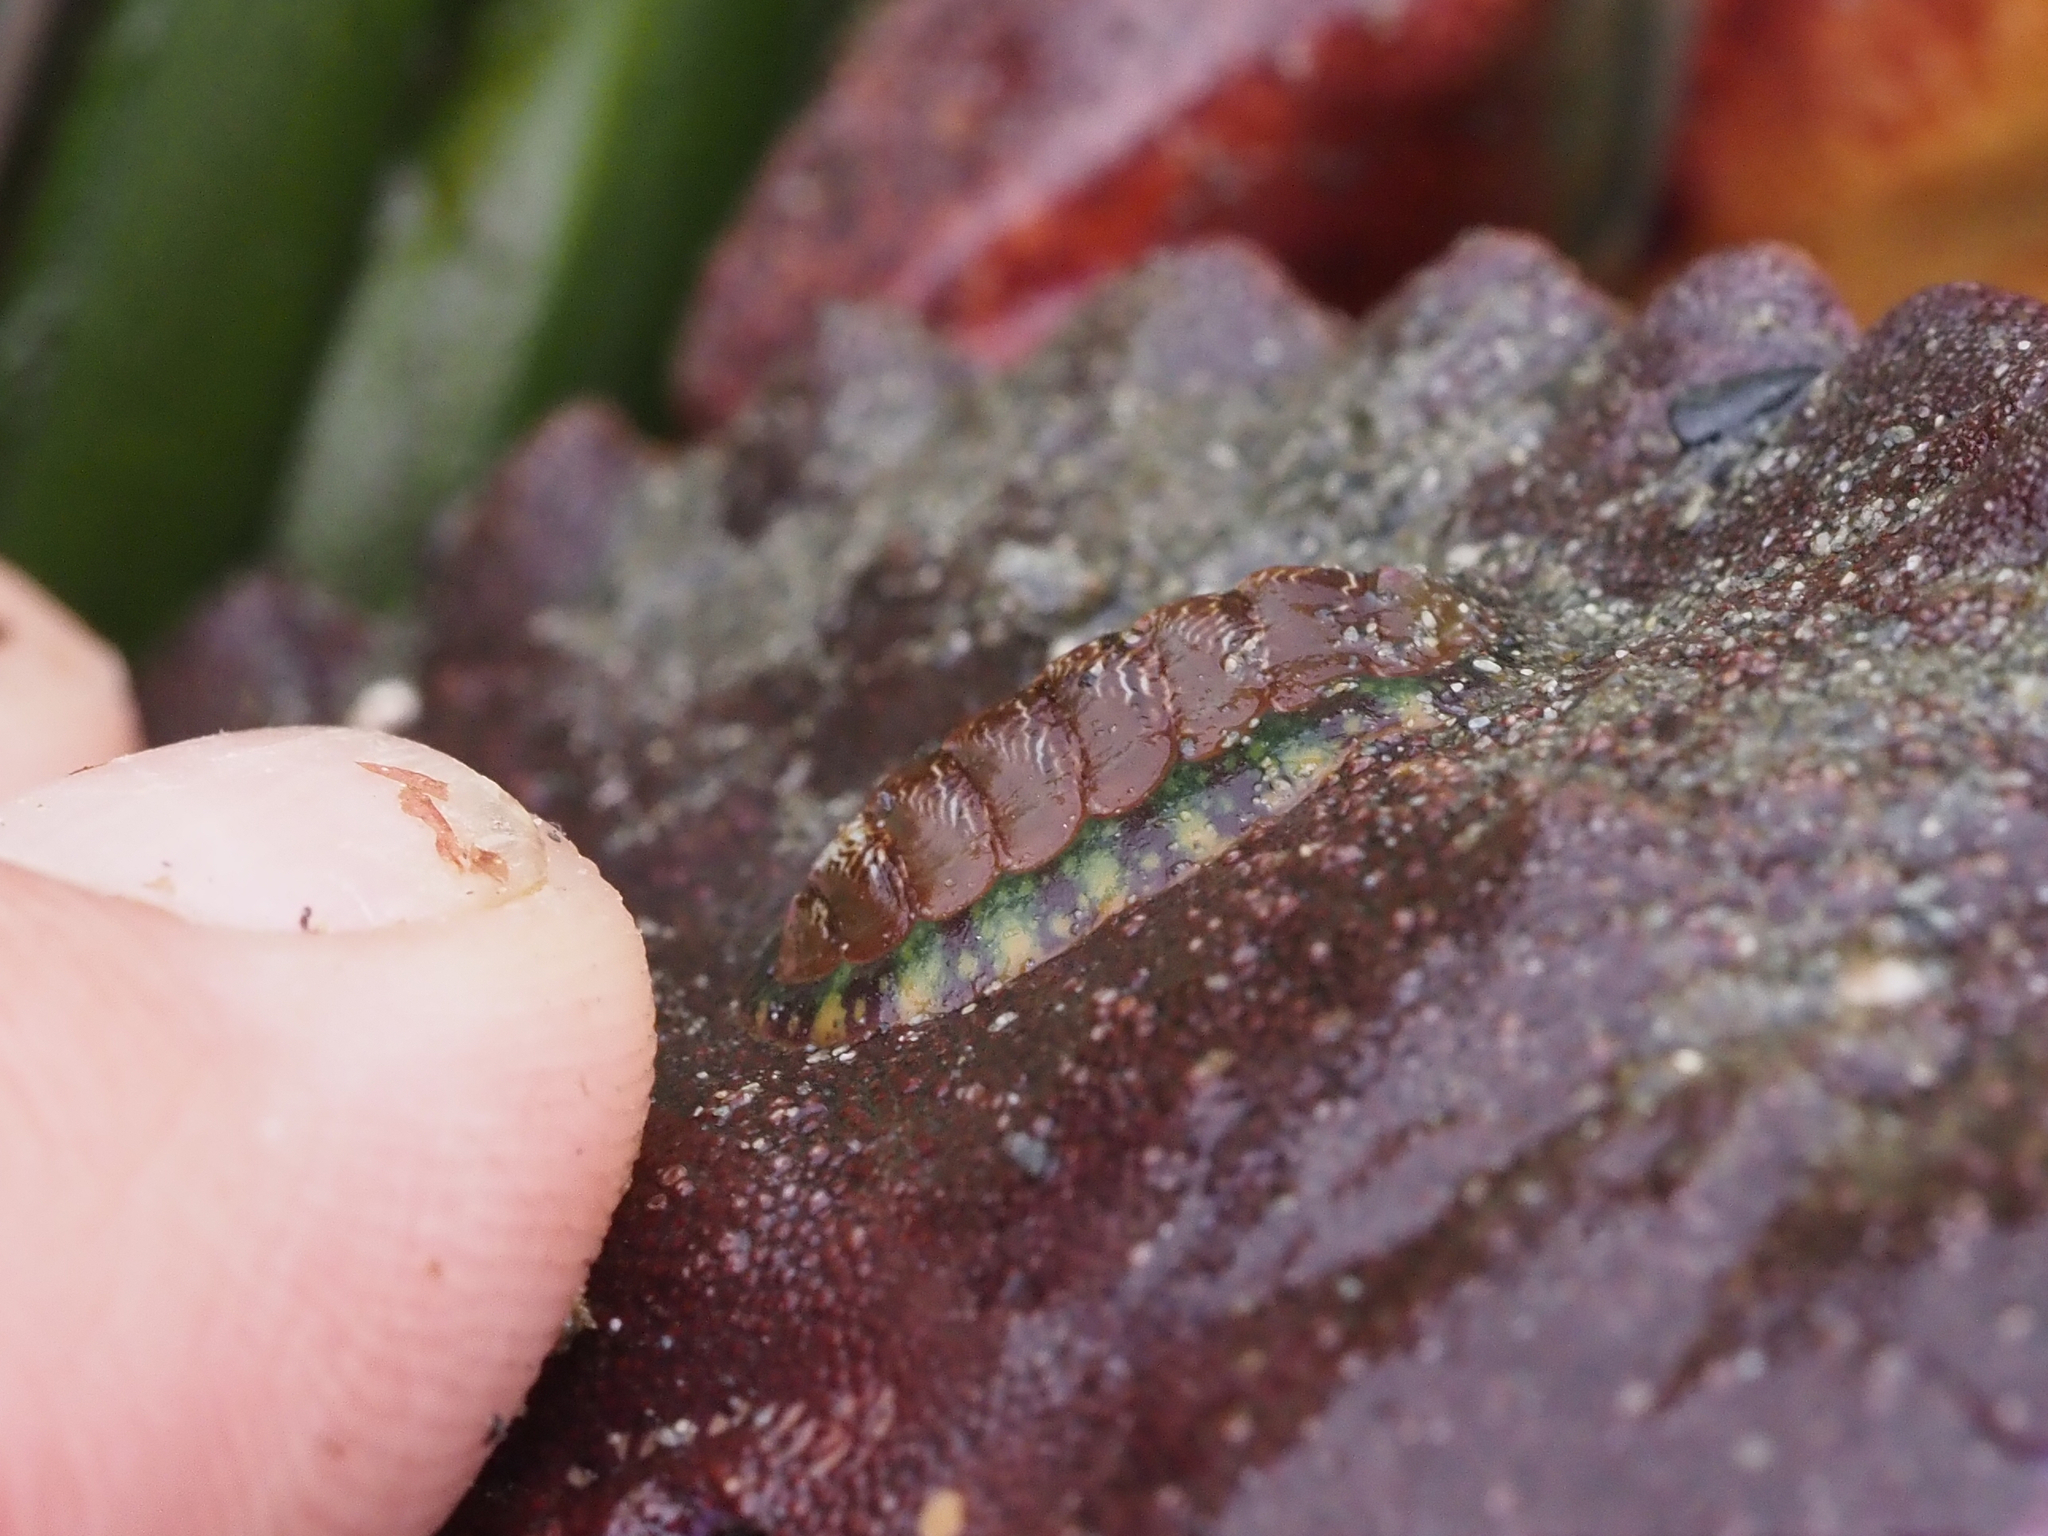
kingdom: Animalia
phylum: Mollusca
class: Polyplacophora
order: Chitonida
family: Tonicellidae
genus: Tonicella
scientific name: Tonicella insignis
